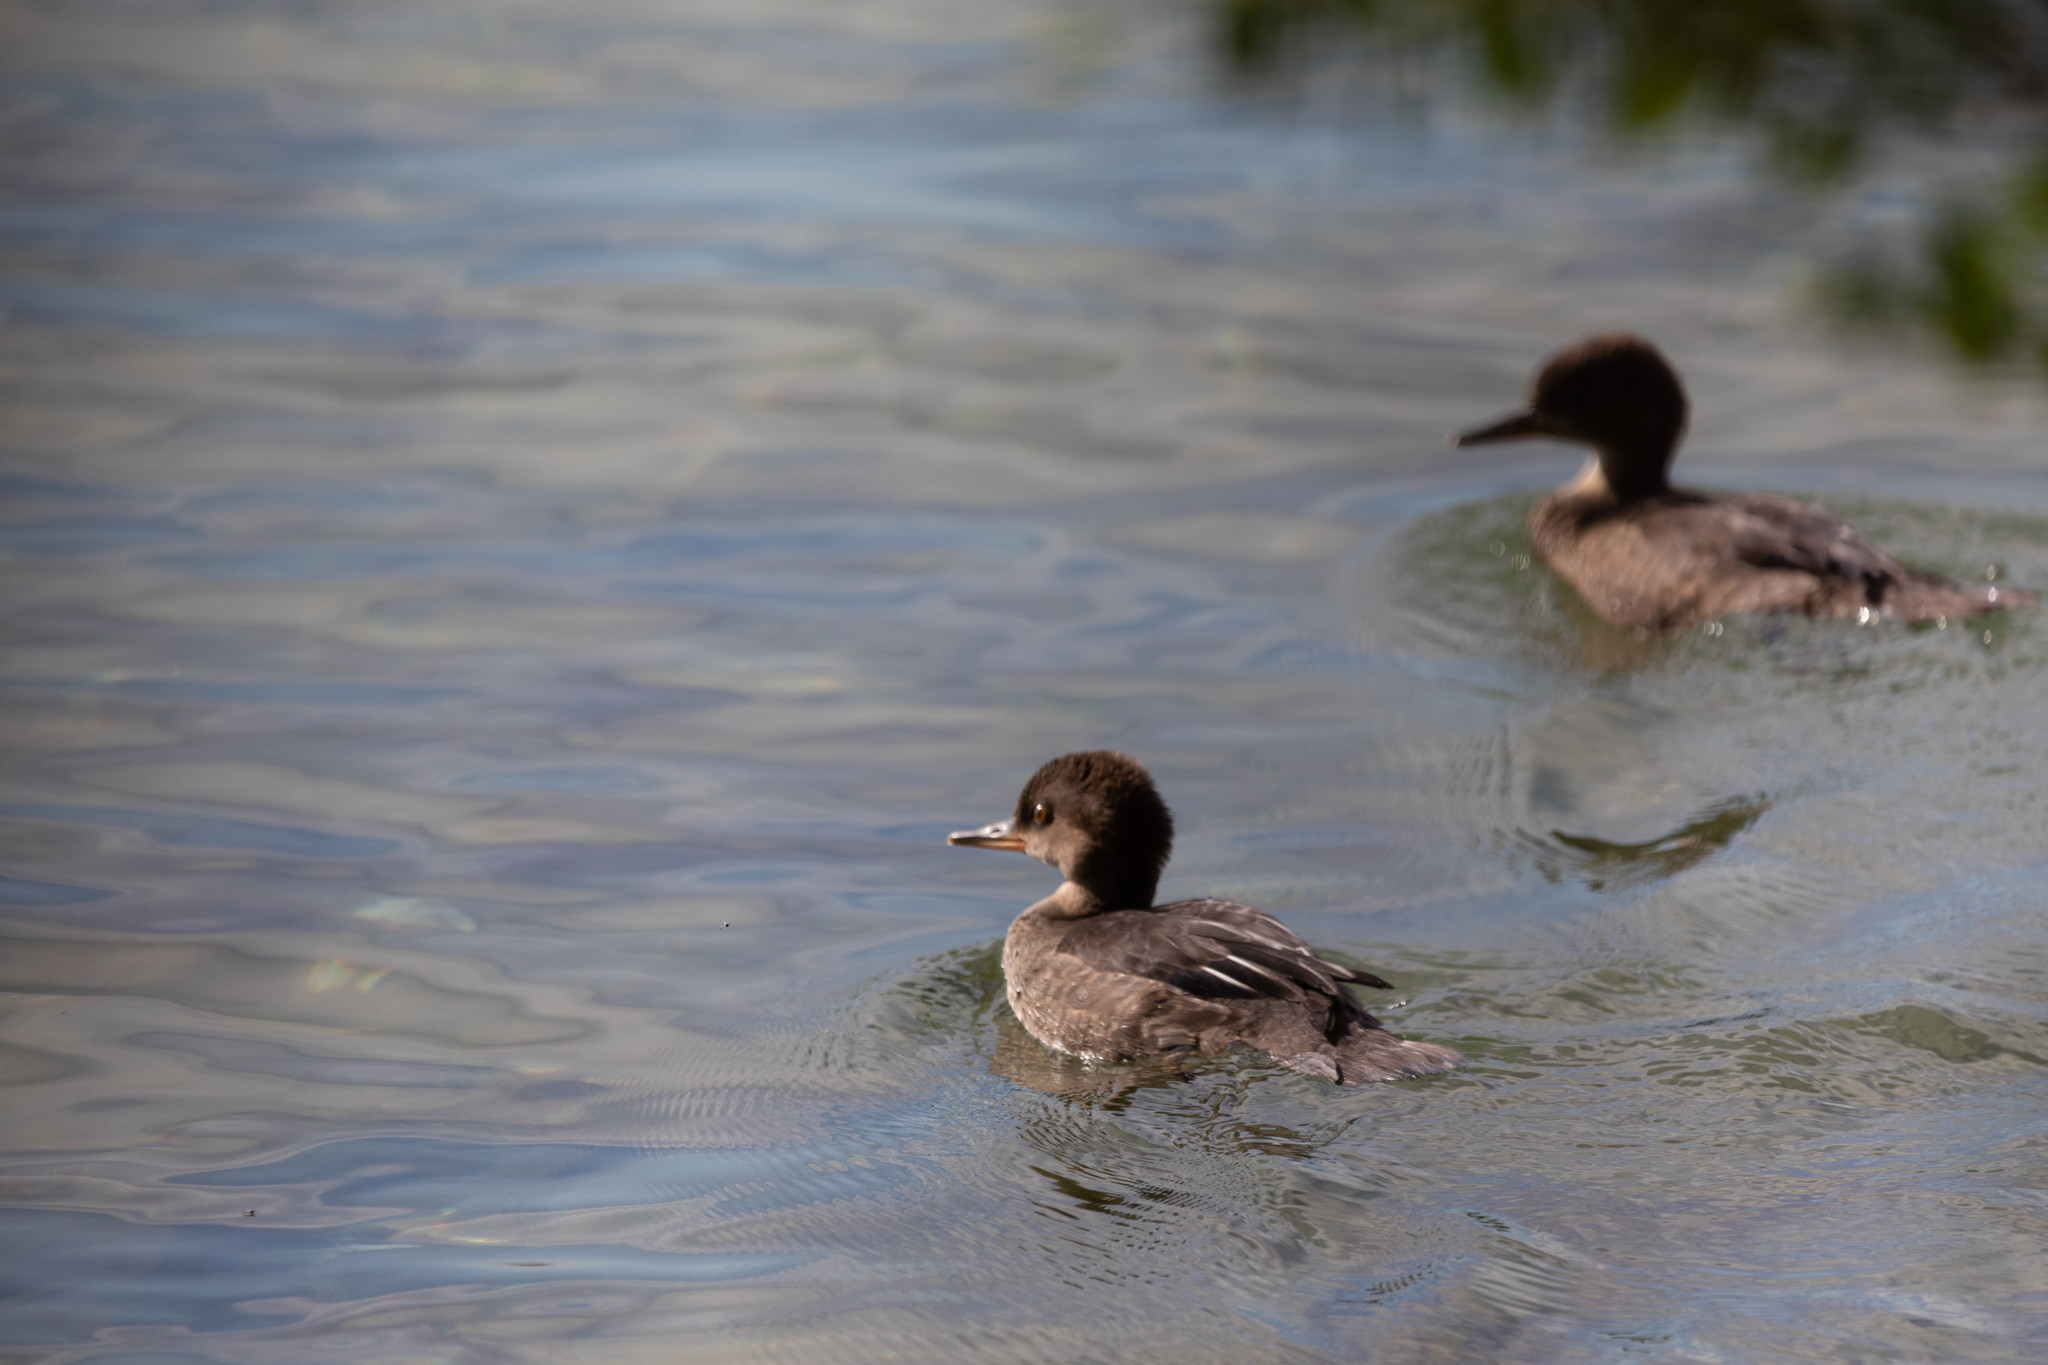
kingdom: Animalia
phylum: Chordata
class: Aves
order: Anseriformes
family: Anatidae
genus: Lophodytes
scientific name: Lophodytes cucullatus
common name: Hooded merganser
